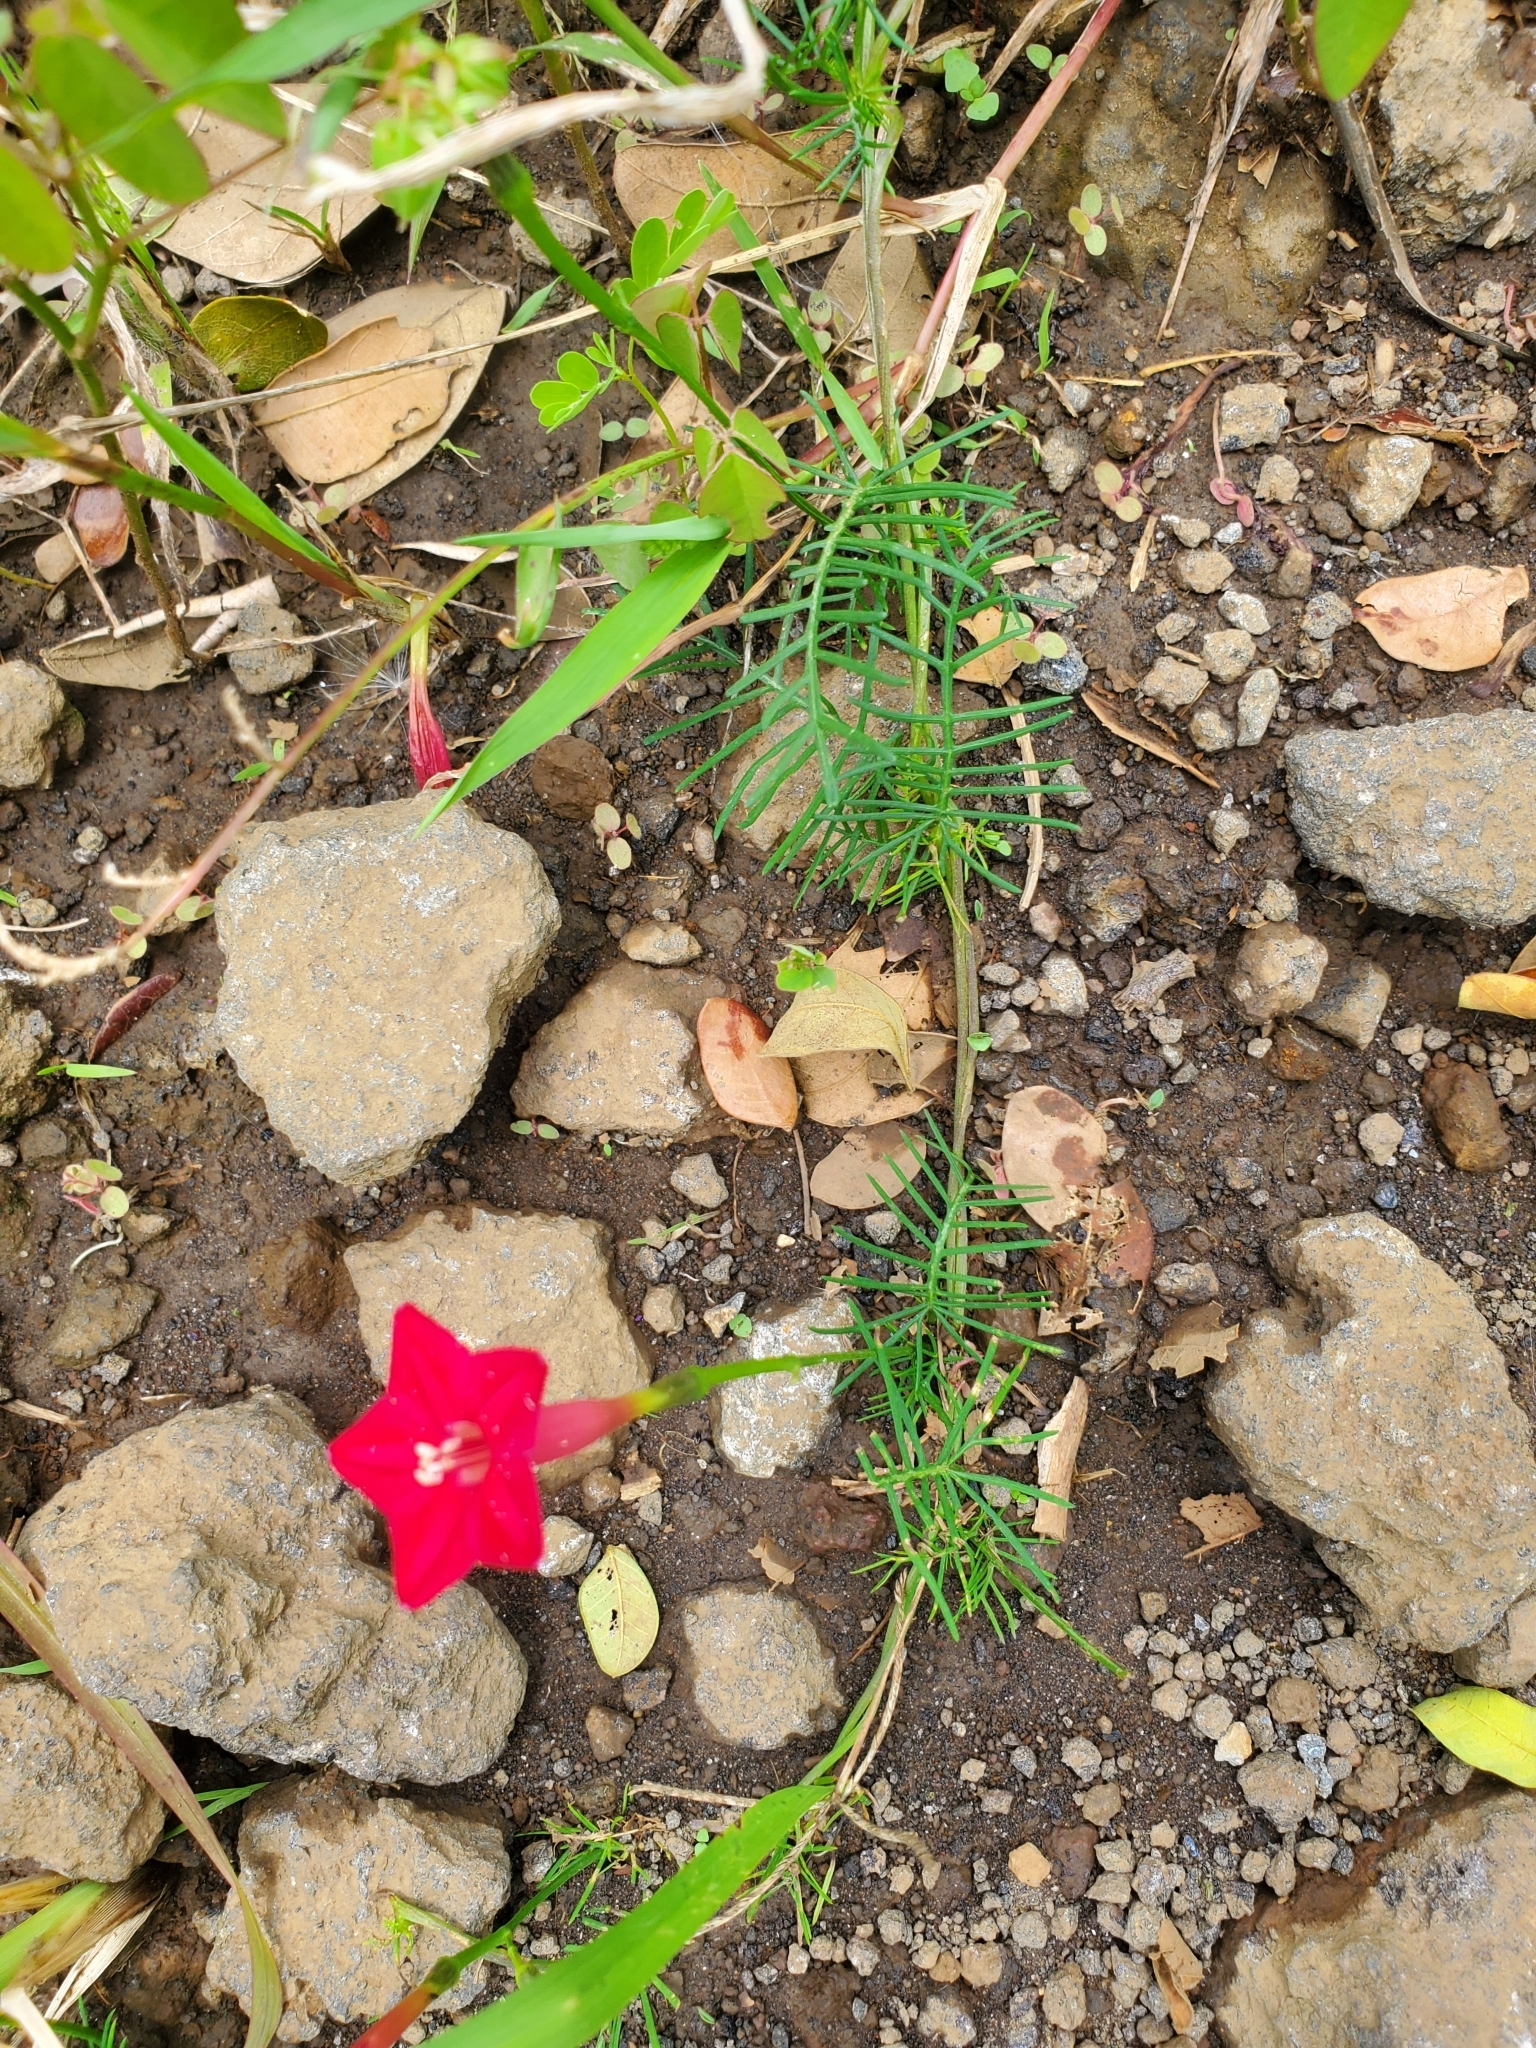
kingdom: Plantae
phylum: Tracheophyta
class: Magnoliopsida
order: Solanales
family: Convolvulaceae
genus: Ipomoea
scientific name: Ipomoea quamoclit
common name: Cypress vine
